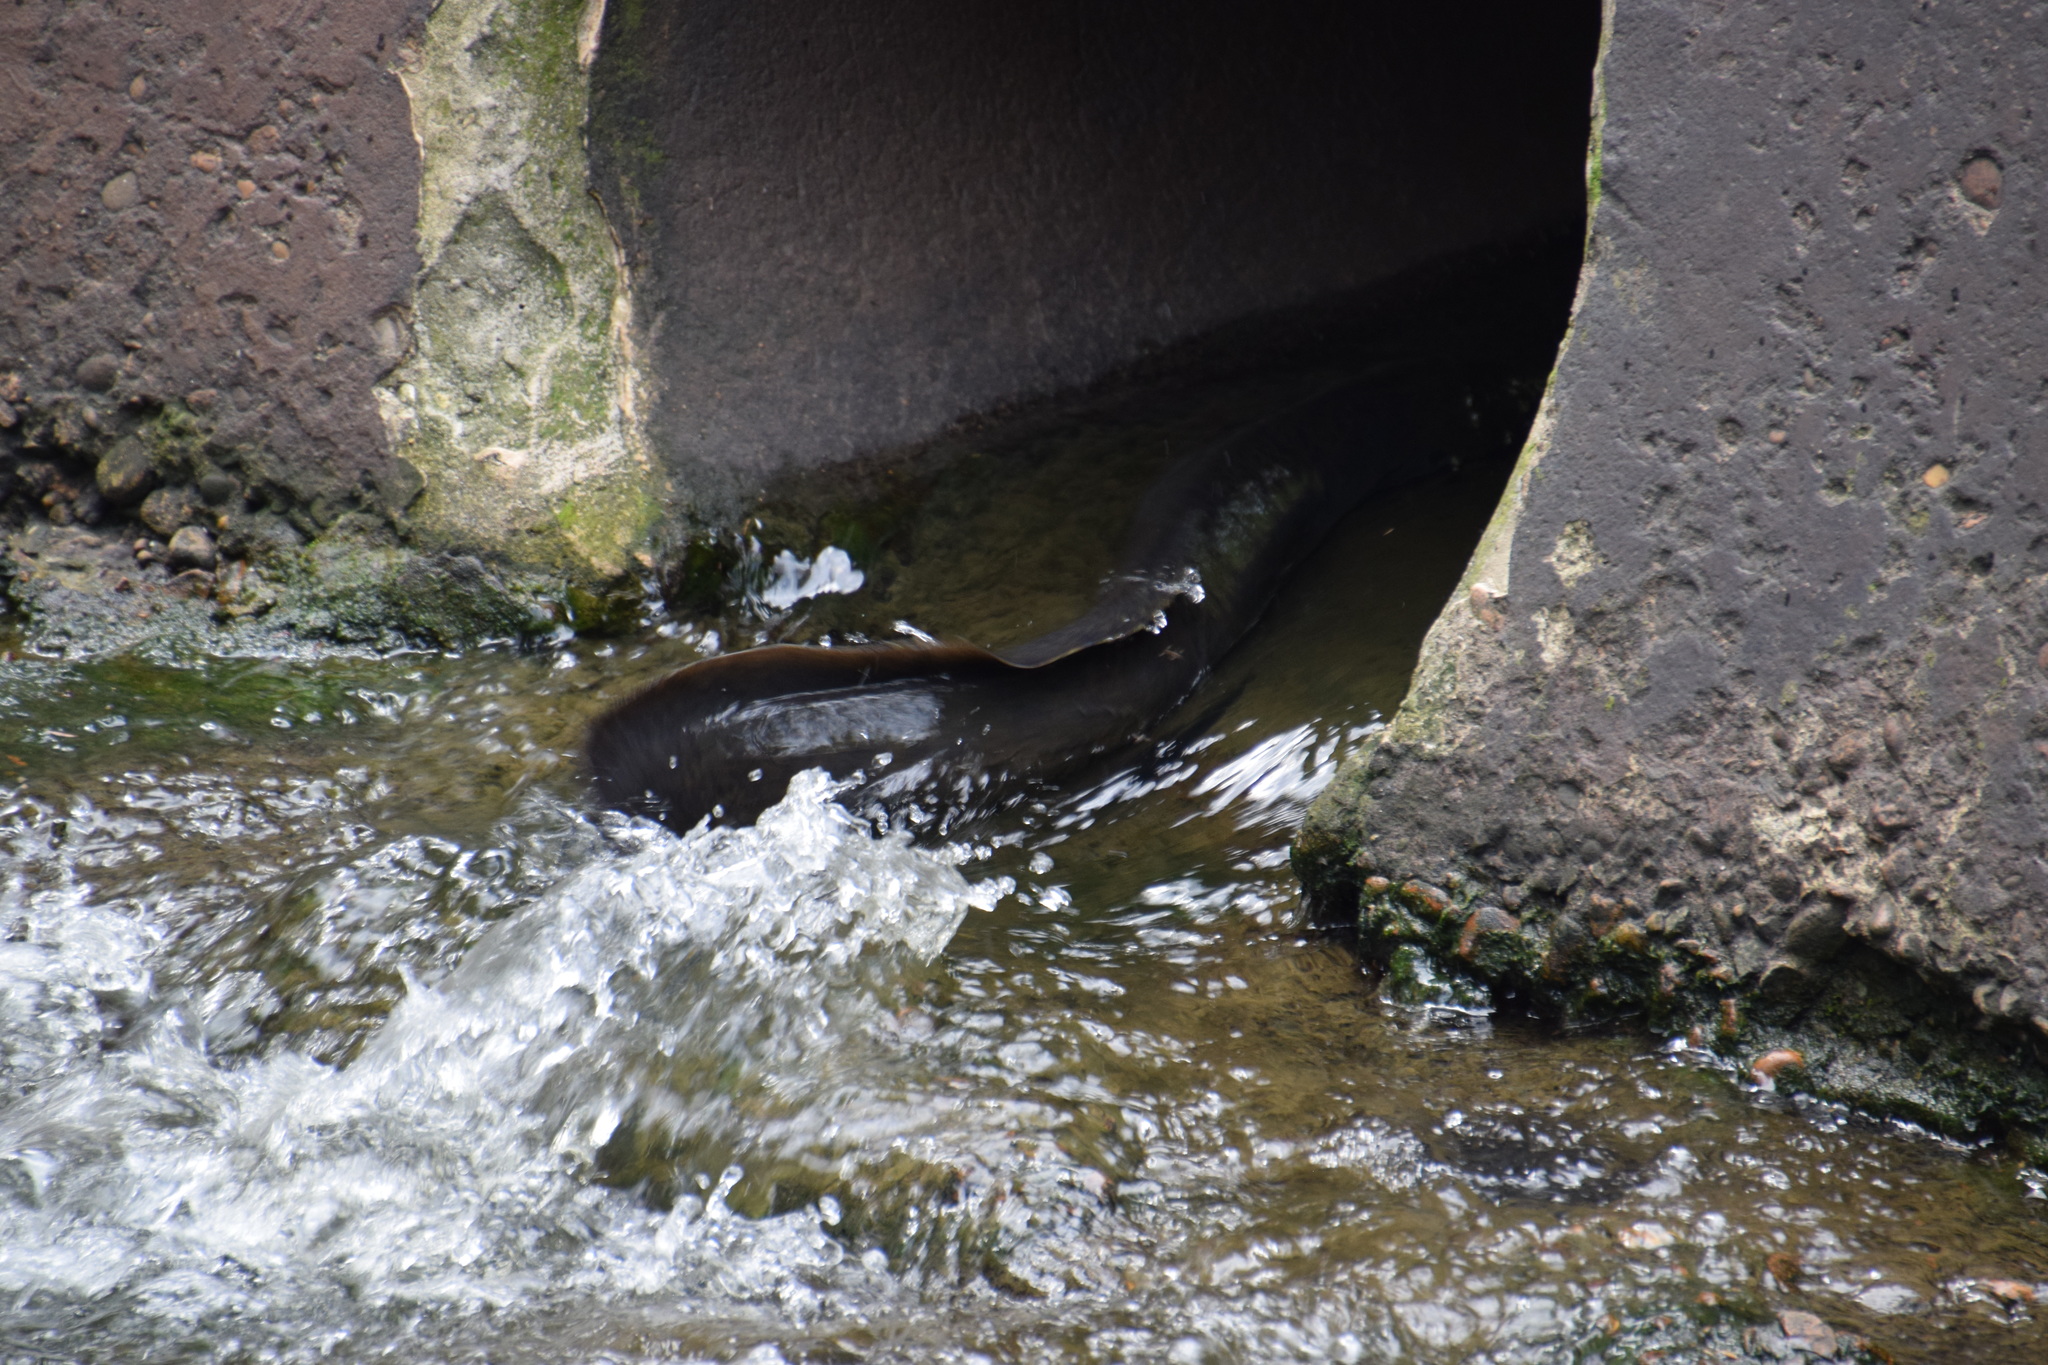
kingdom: Animalia
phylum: Chordata
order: Anguilliformes
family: Anguillidae
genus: Anguilla
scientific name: Anguilla reinhardtii
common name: Longfin eel
